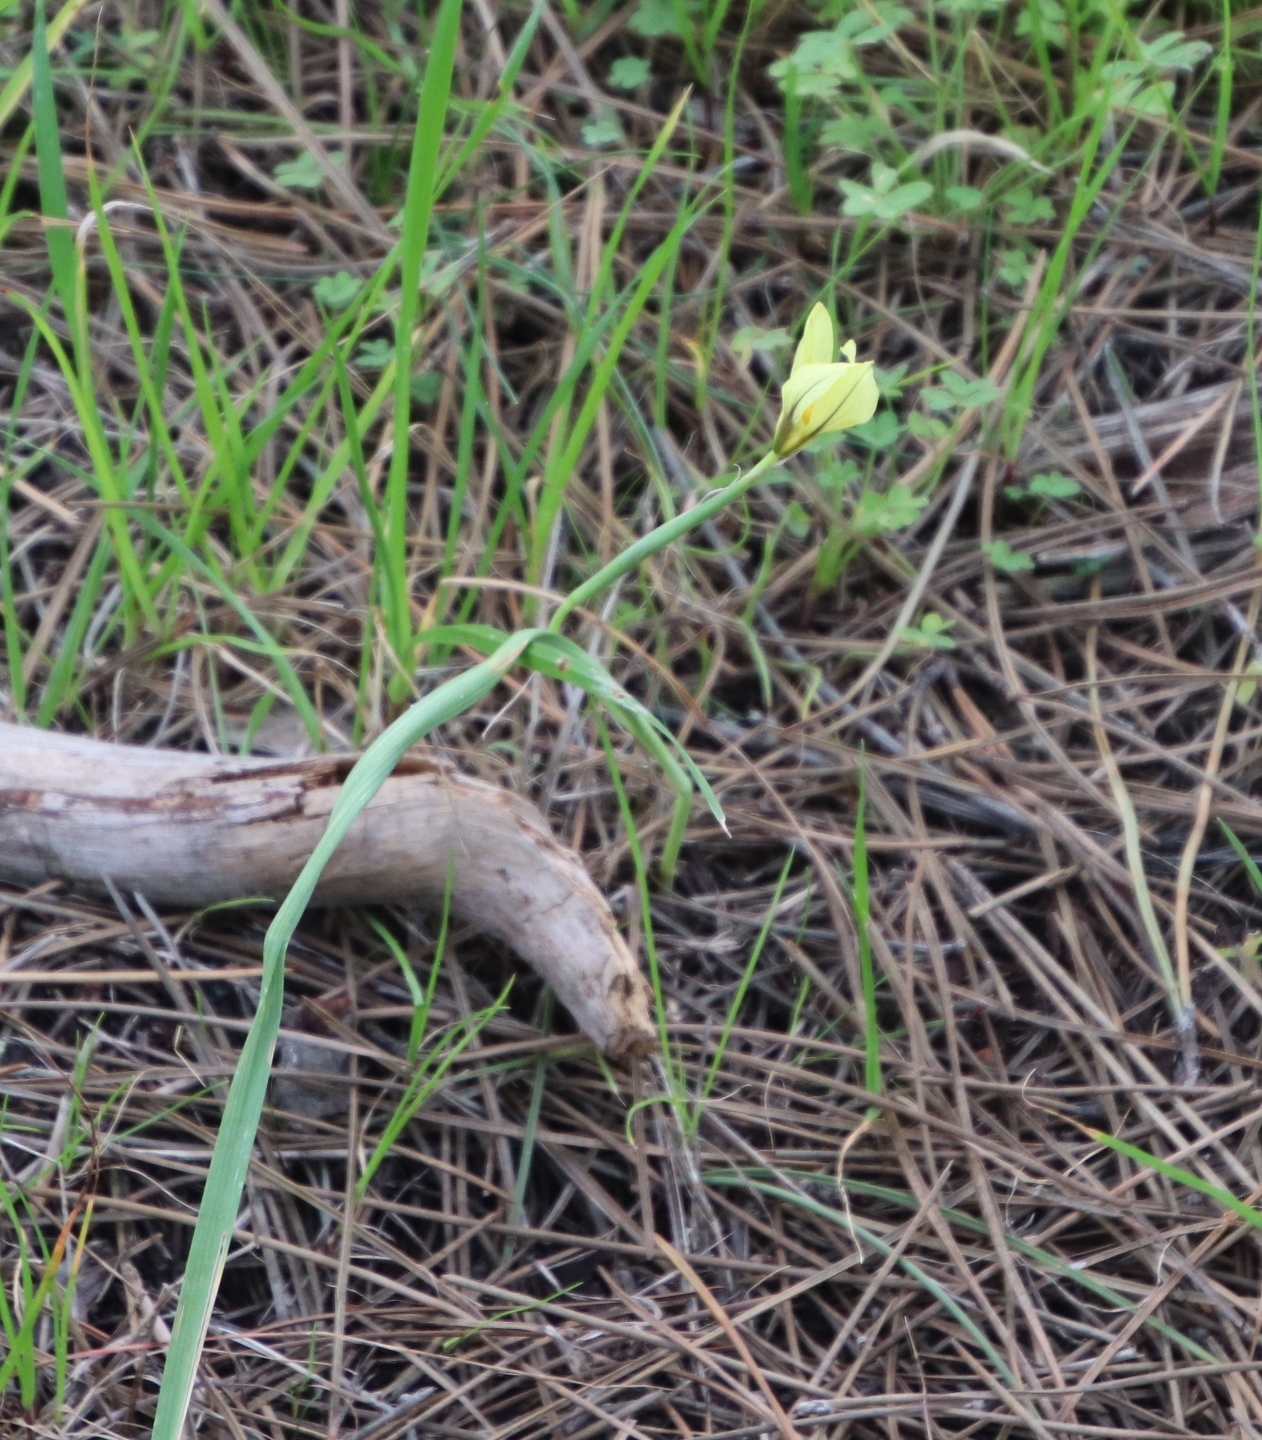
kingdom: Plantae
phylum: Tracheophyta
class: Liliopsida
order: Asparagales
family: Iridaceae
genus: Moraea
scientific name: Moraea collina
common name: Cape-tulip
